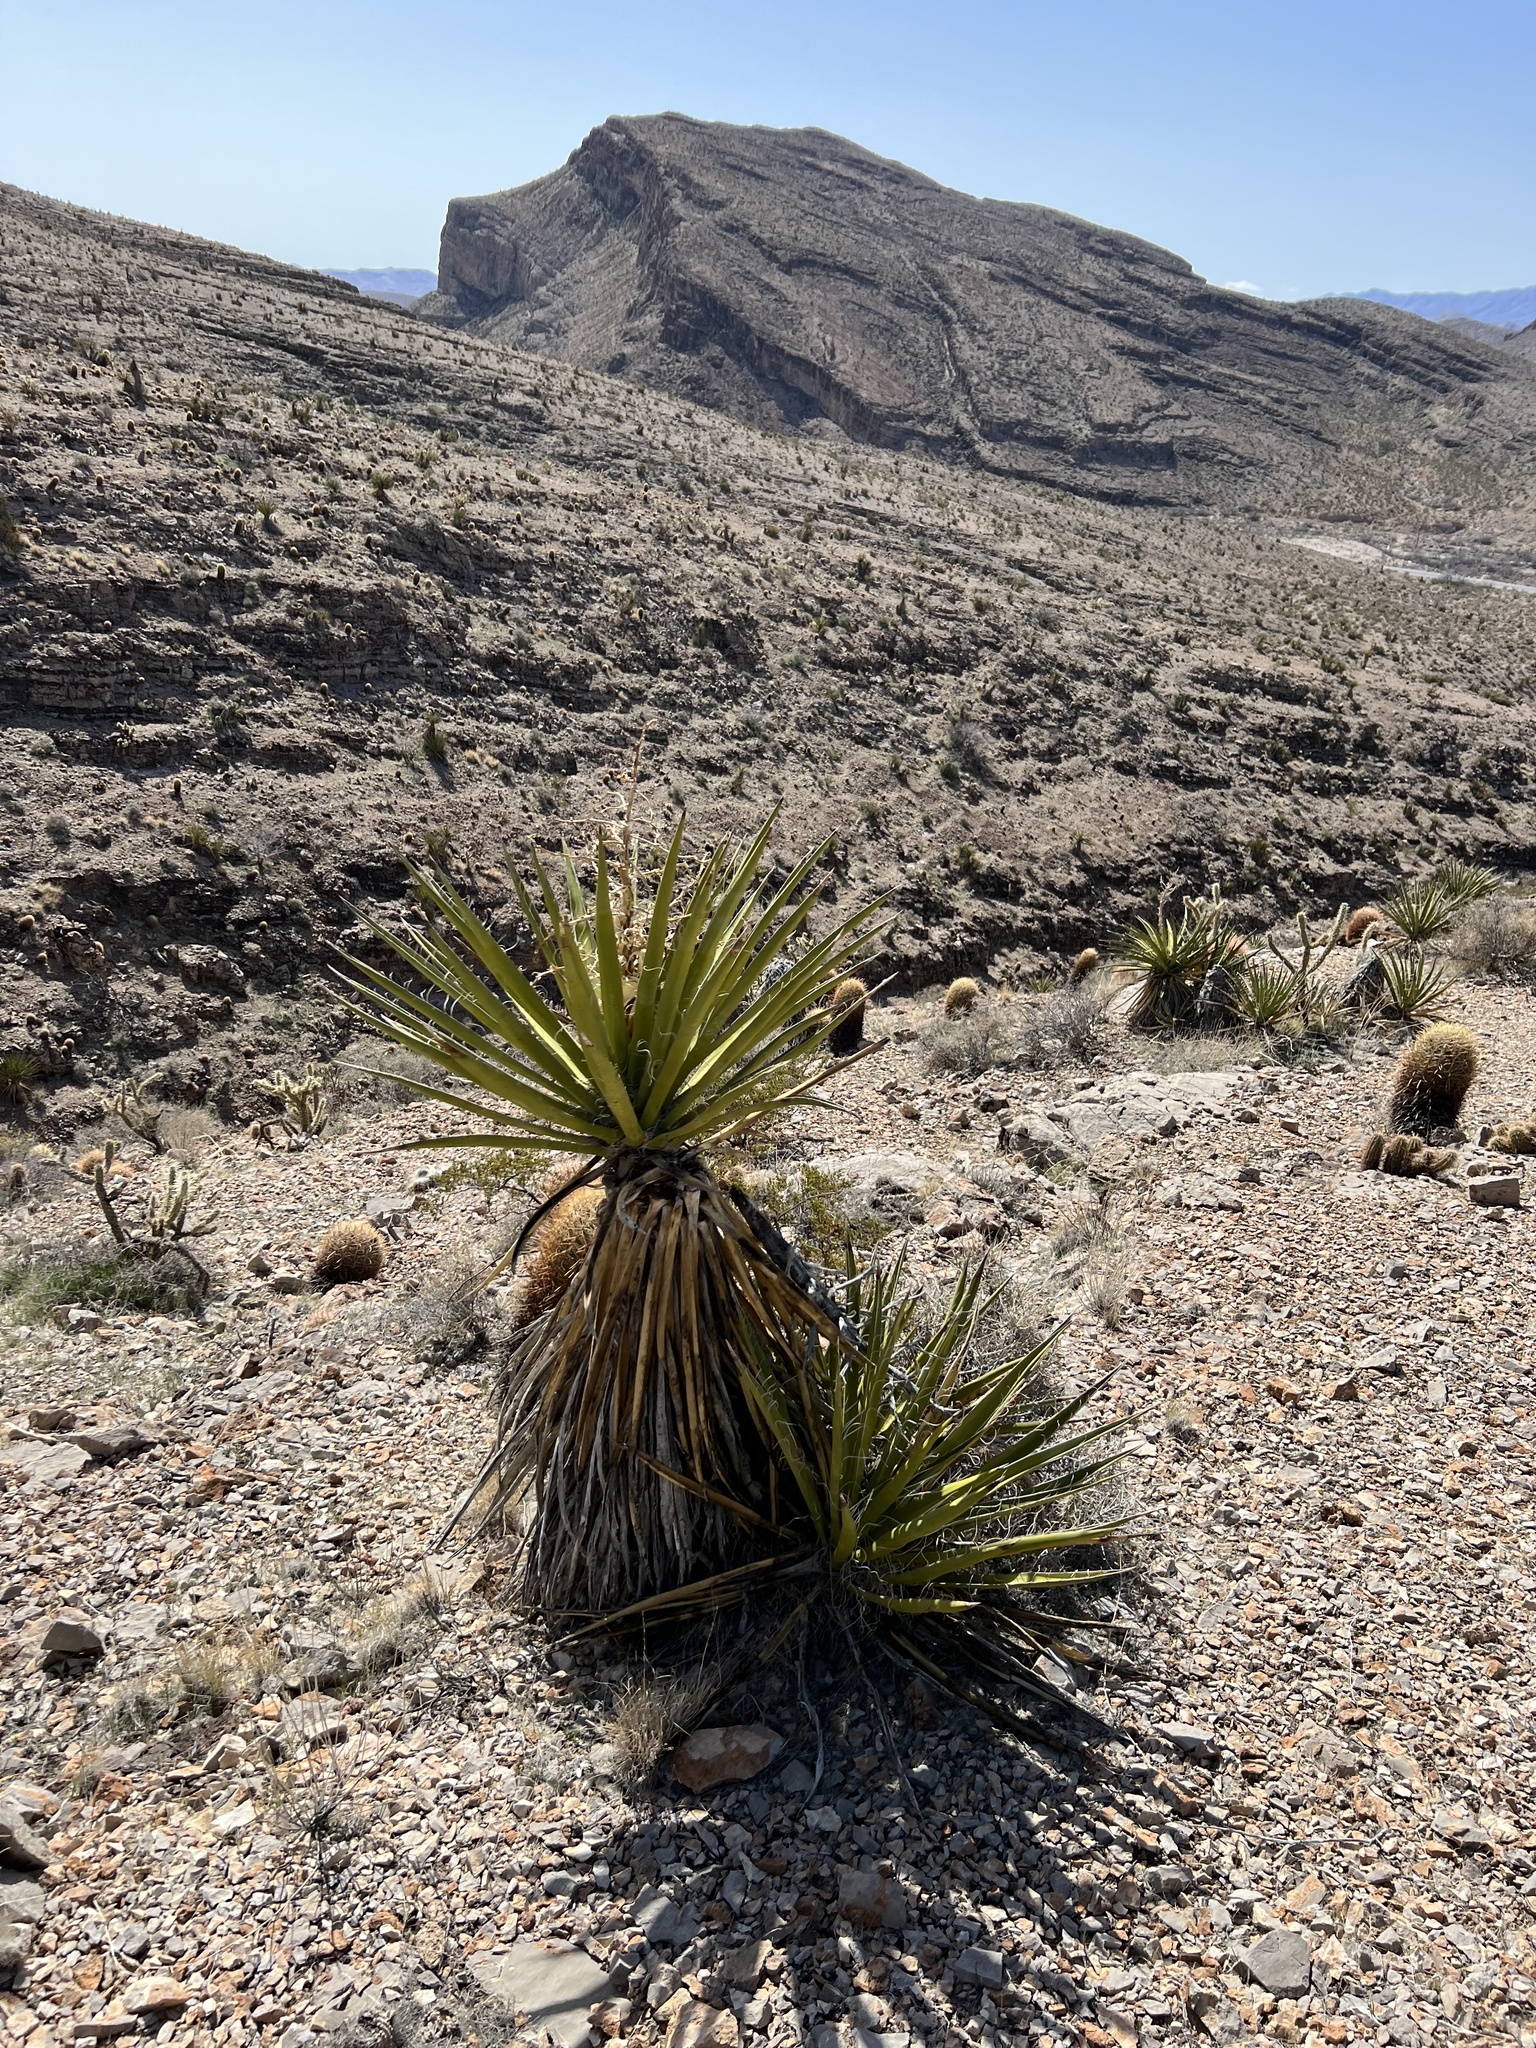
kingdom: Plantae
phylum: Tracheophyta
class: Liliopsida
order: Asparagales
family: Asparagaceae
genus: Yucca
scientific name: Yucca schidigera
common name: Mojave yucca
